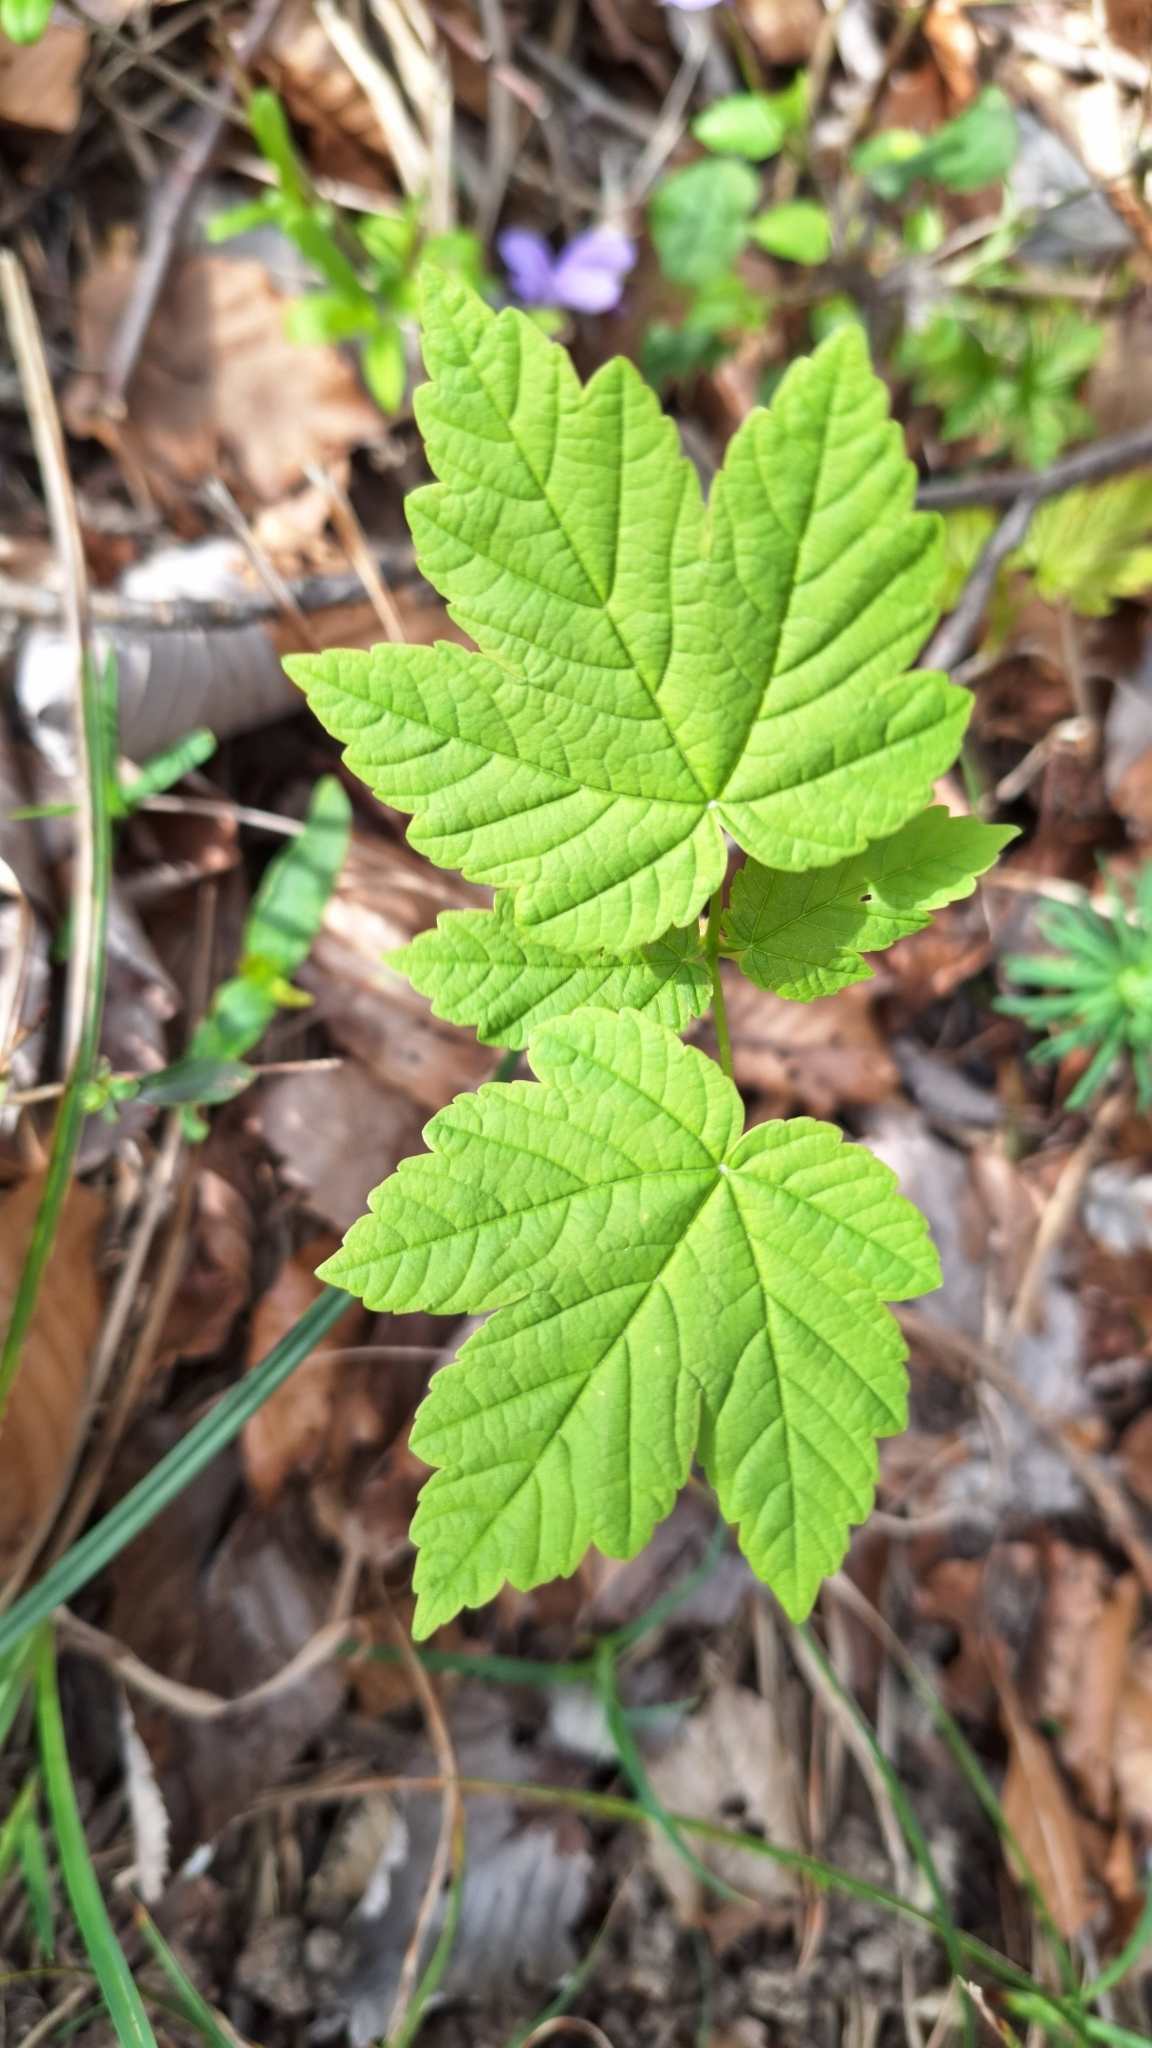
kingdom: Plantae
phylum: Tracheophyta
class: Magnoliopsida
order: Sapindales
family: Sapindaceae
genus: Acer
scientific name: Acer pseudoplatanus
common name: Sycamore
